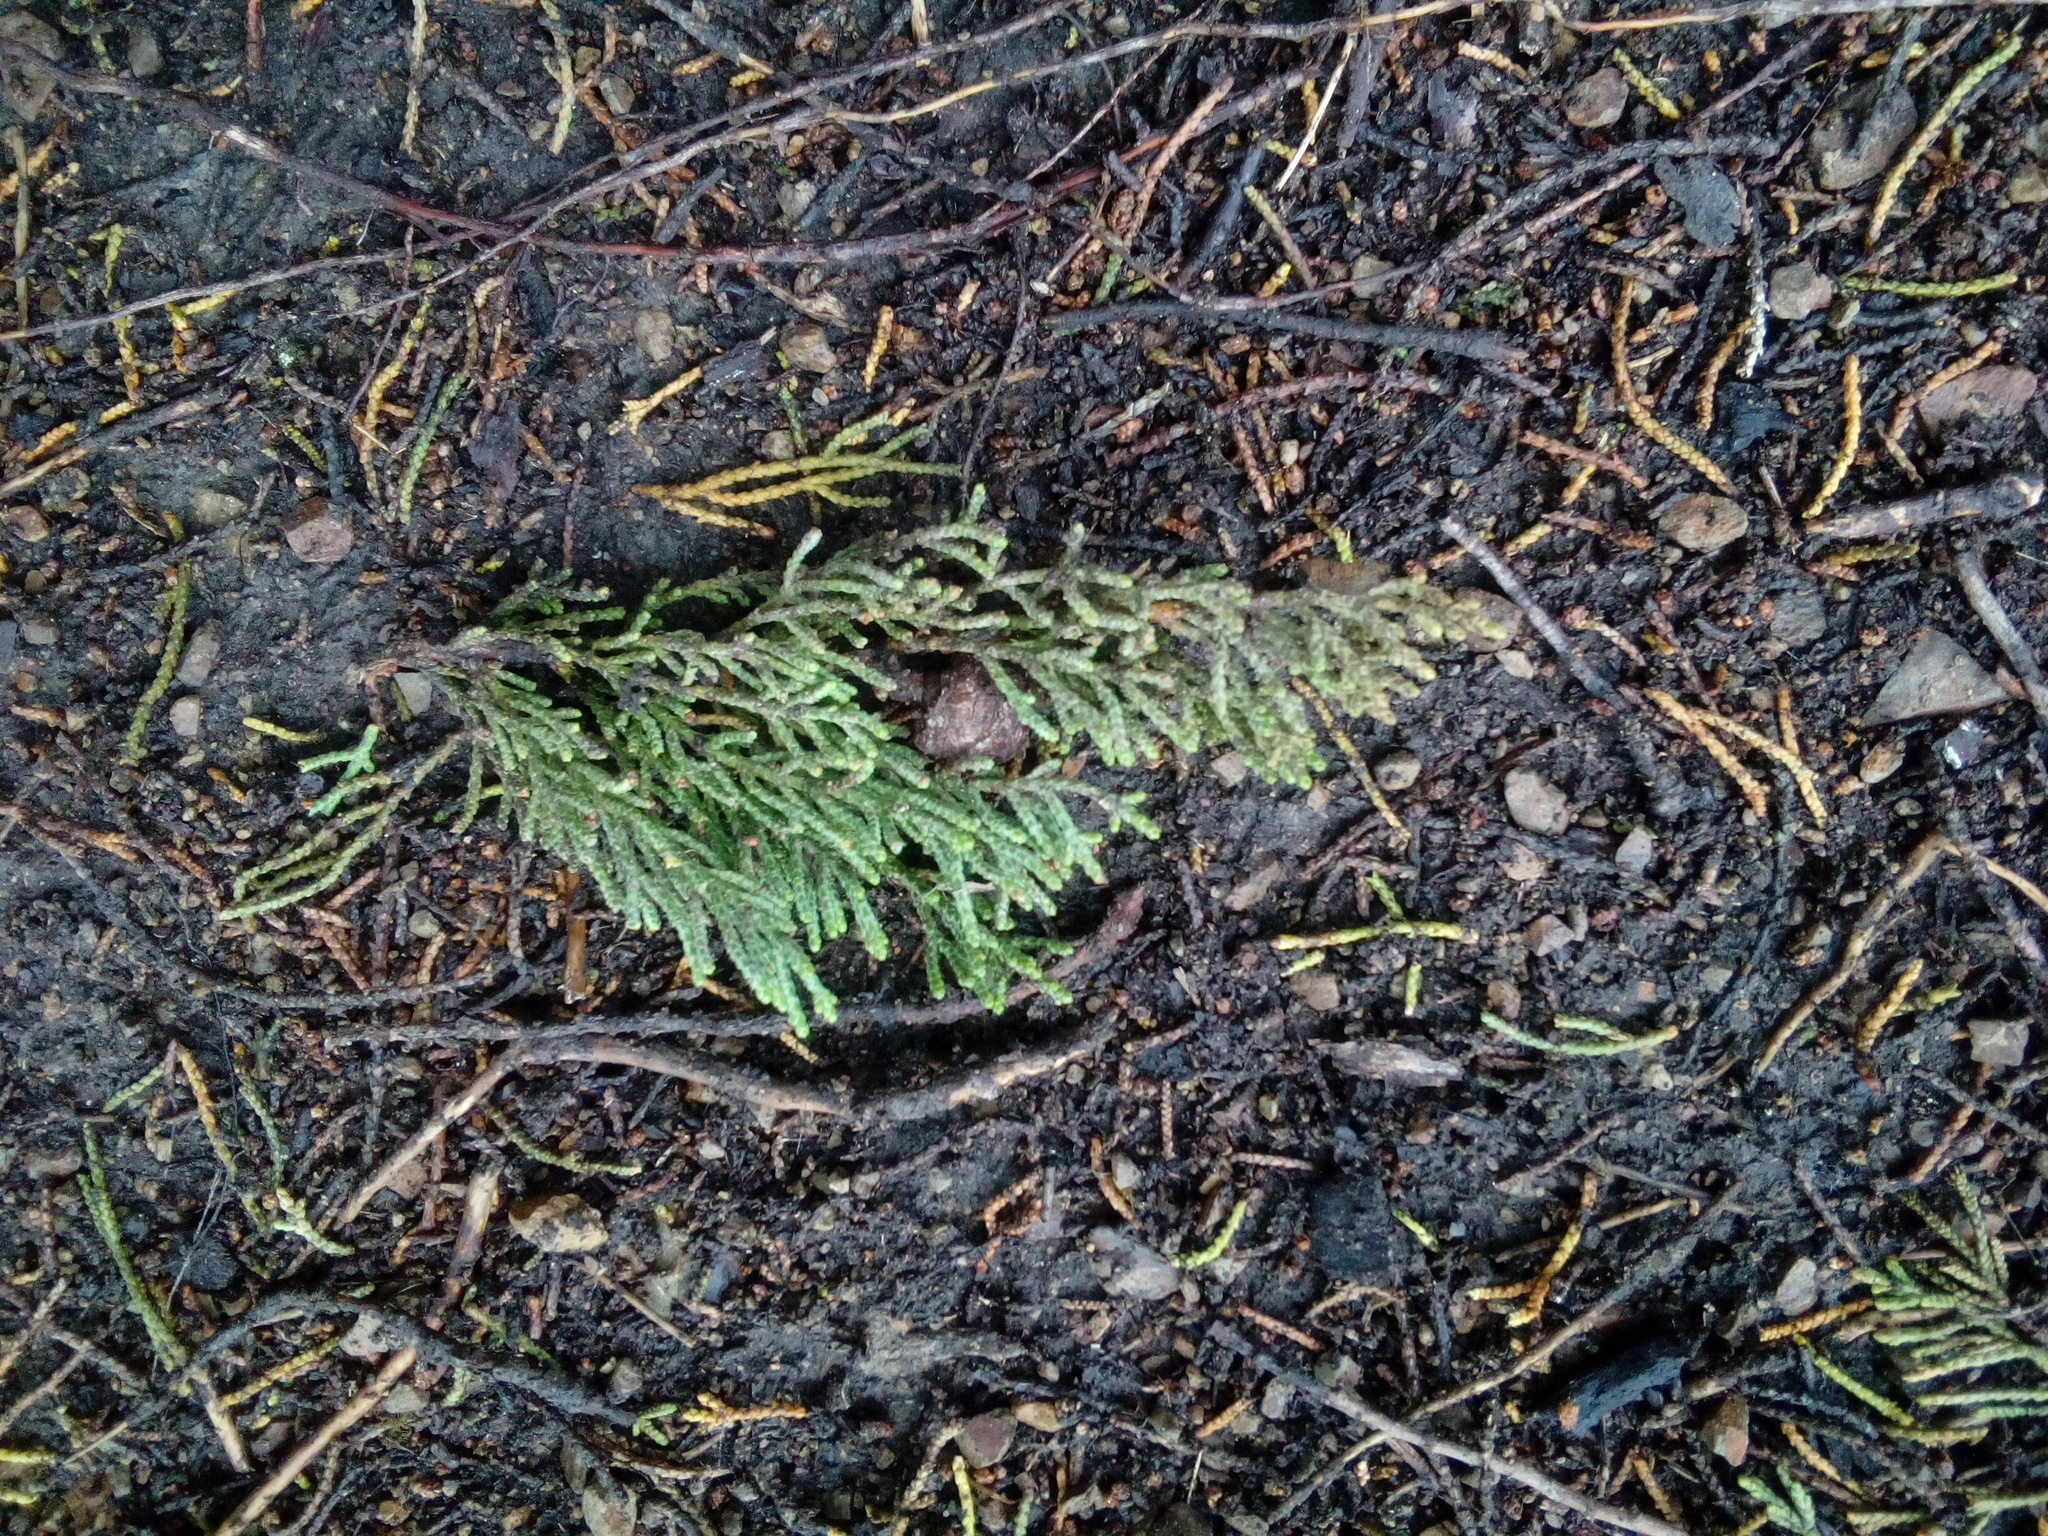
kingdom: Plantae
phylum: Tracheophyta
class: Pinopsida
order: Pinales
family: Cupressaceae
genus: Cupressus
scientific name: Cupressus macrocarpa
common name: Monterey cypress
